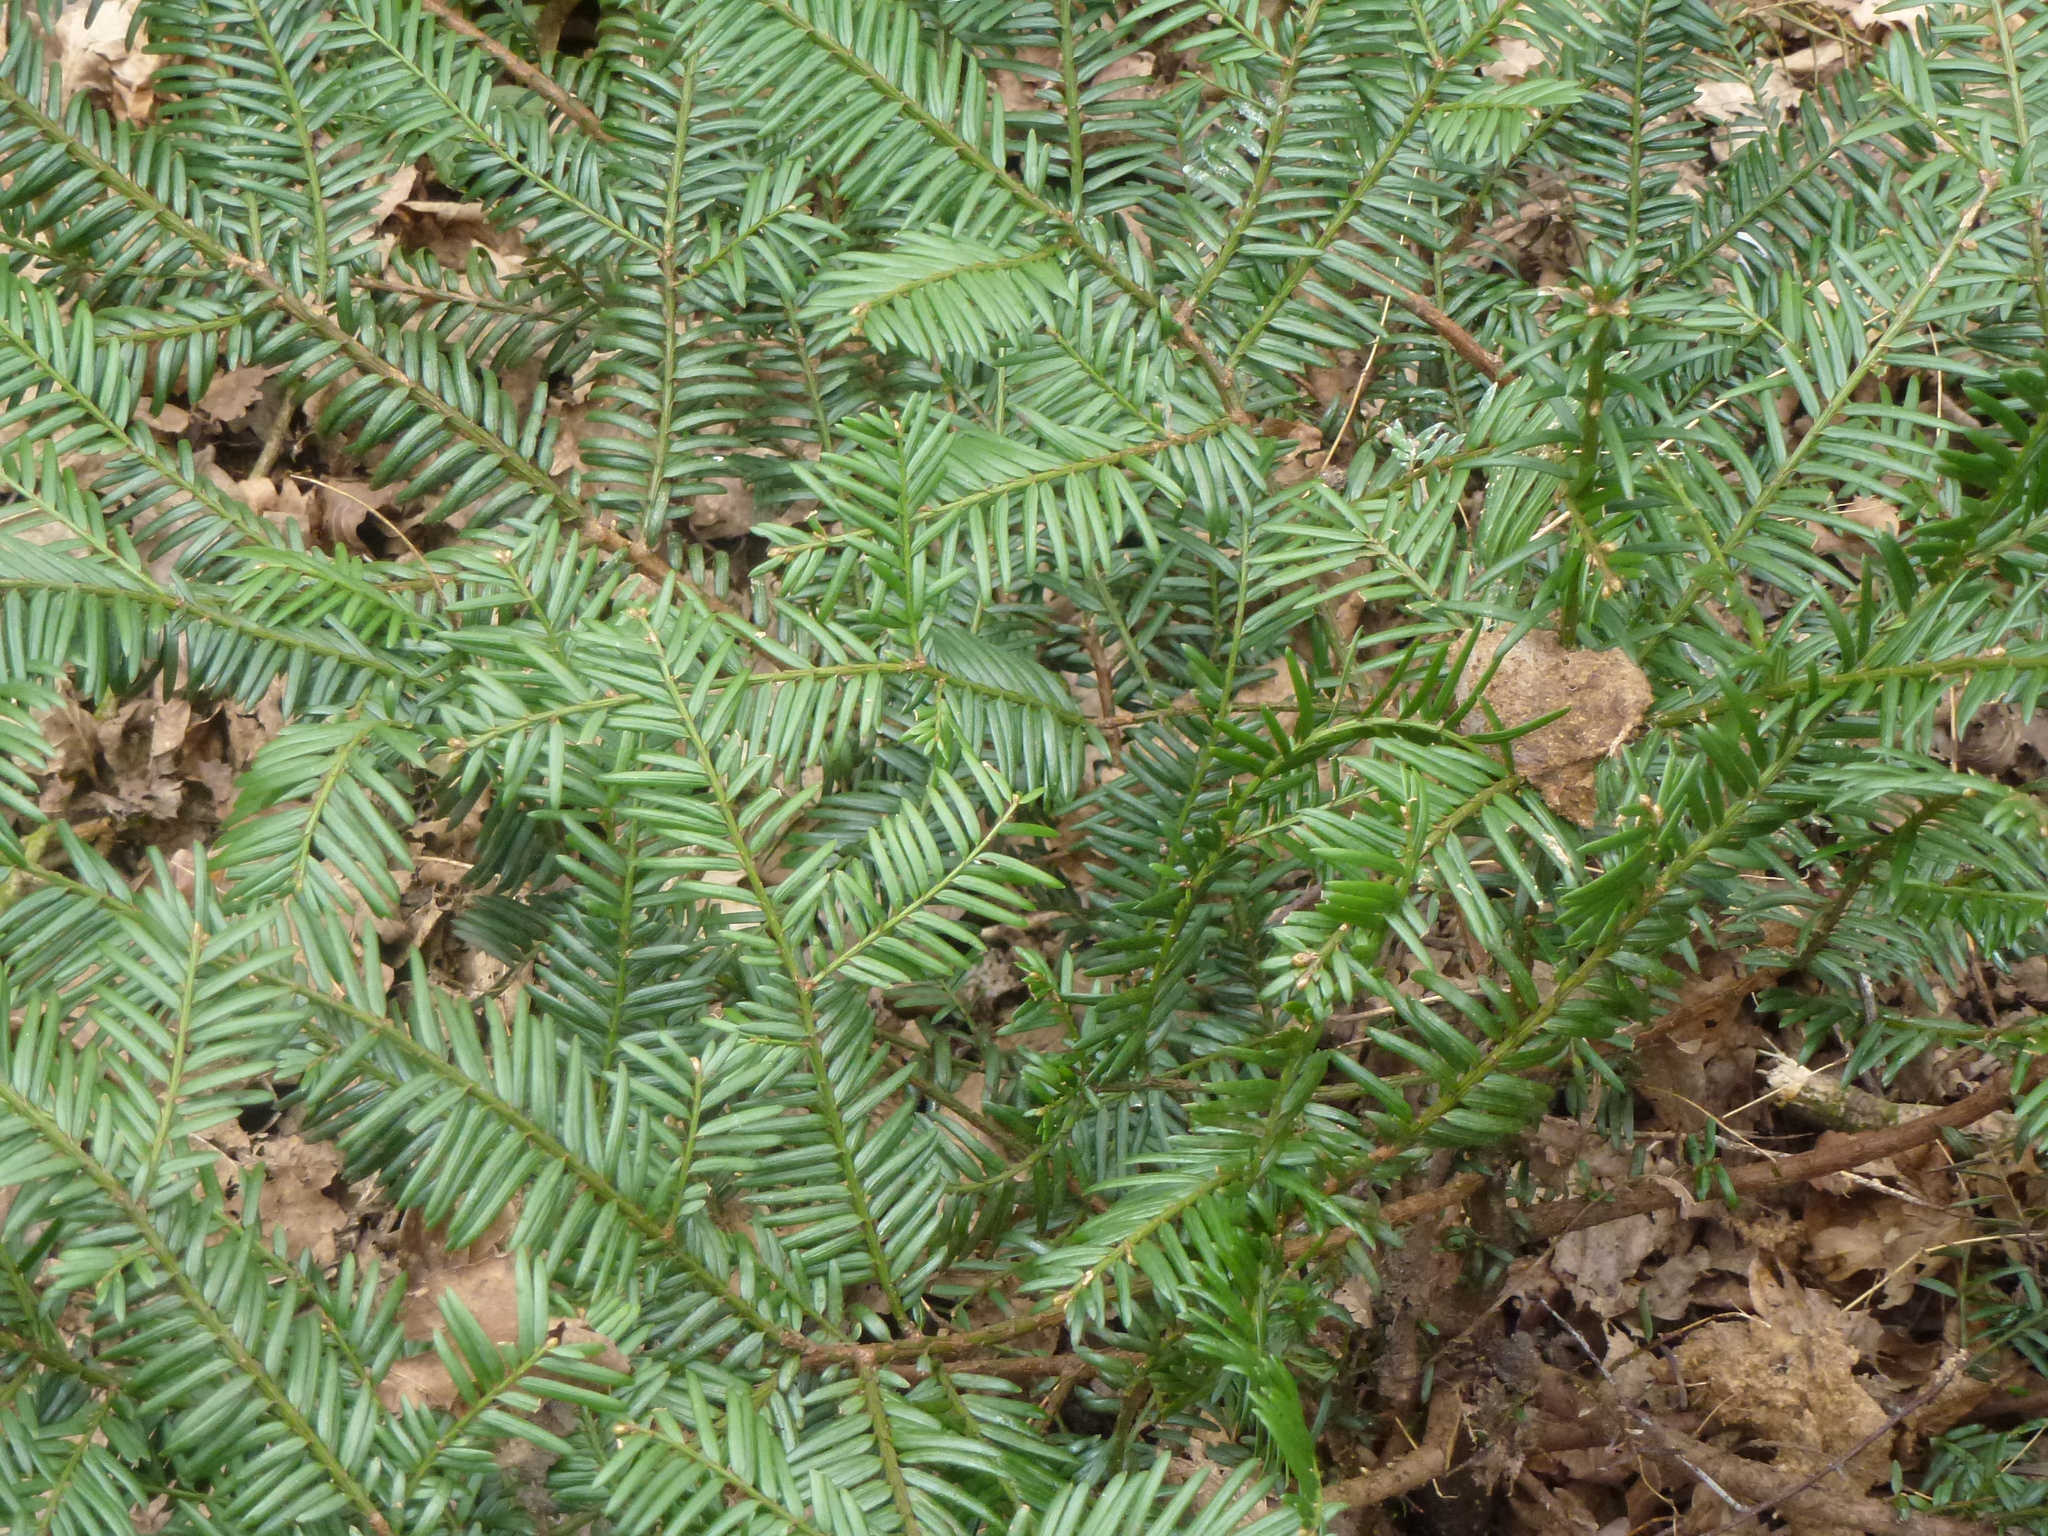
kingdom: Plantae
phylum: Tracheophyta
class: Pinopsida
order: Pinales
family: Taxaceae
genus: Taxus
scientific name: Taxus baccata
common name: Yew
